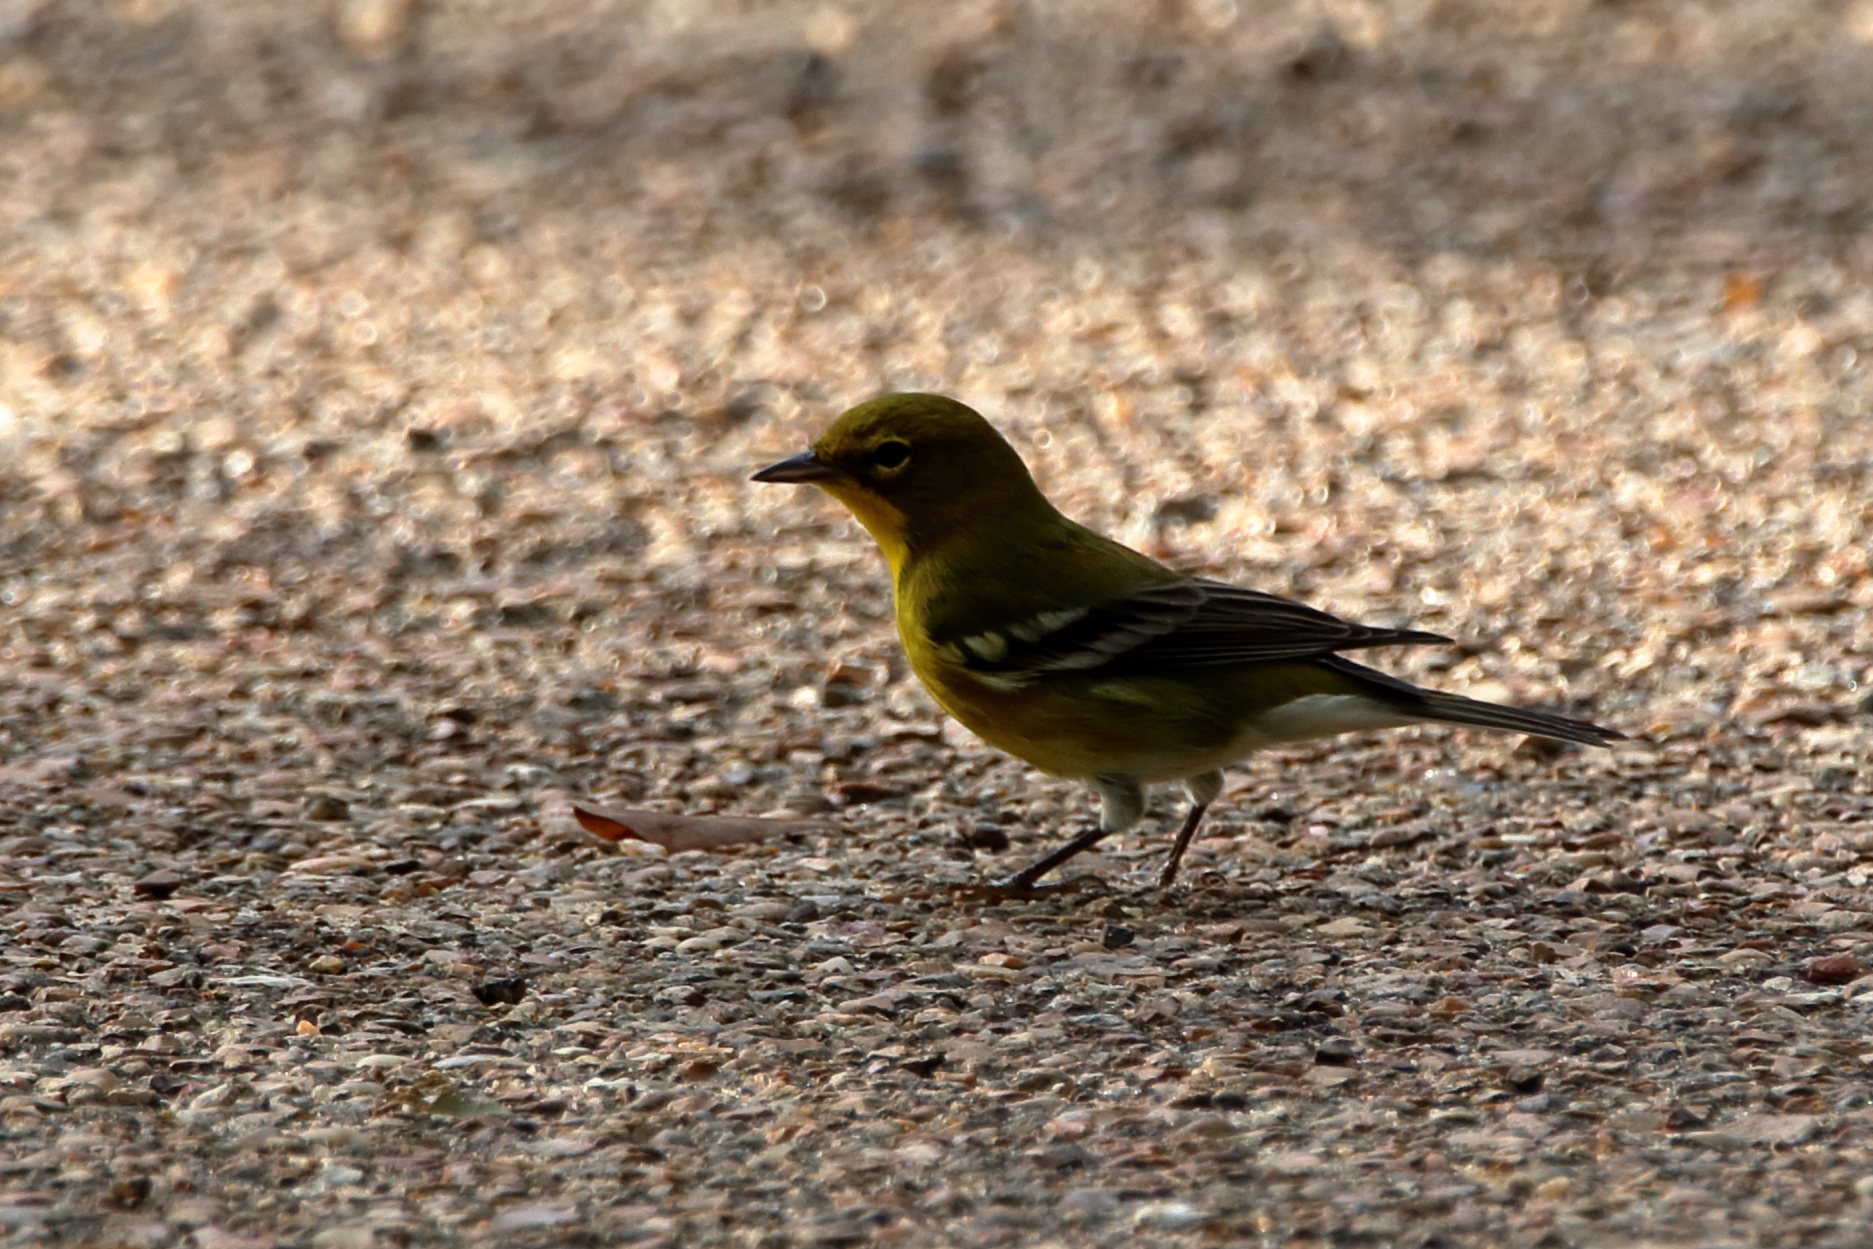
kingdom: Animalia
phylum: Chordata
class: Aves
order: Passeriformes
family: Parulidae
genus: Setophaga
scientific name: Setophaga pinus
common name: Pine warbler
